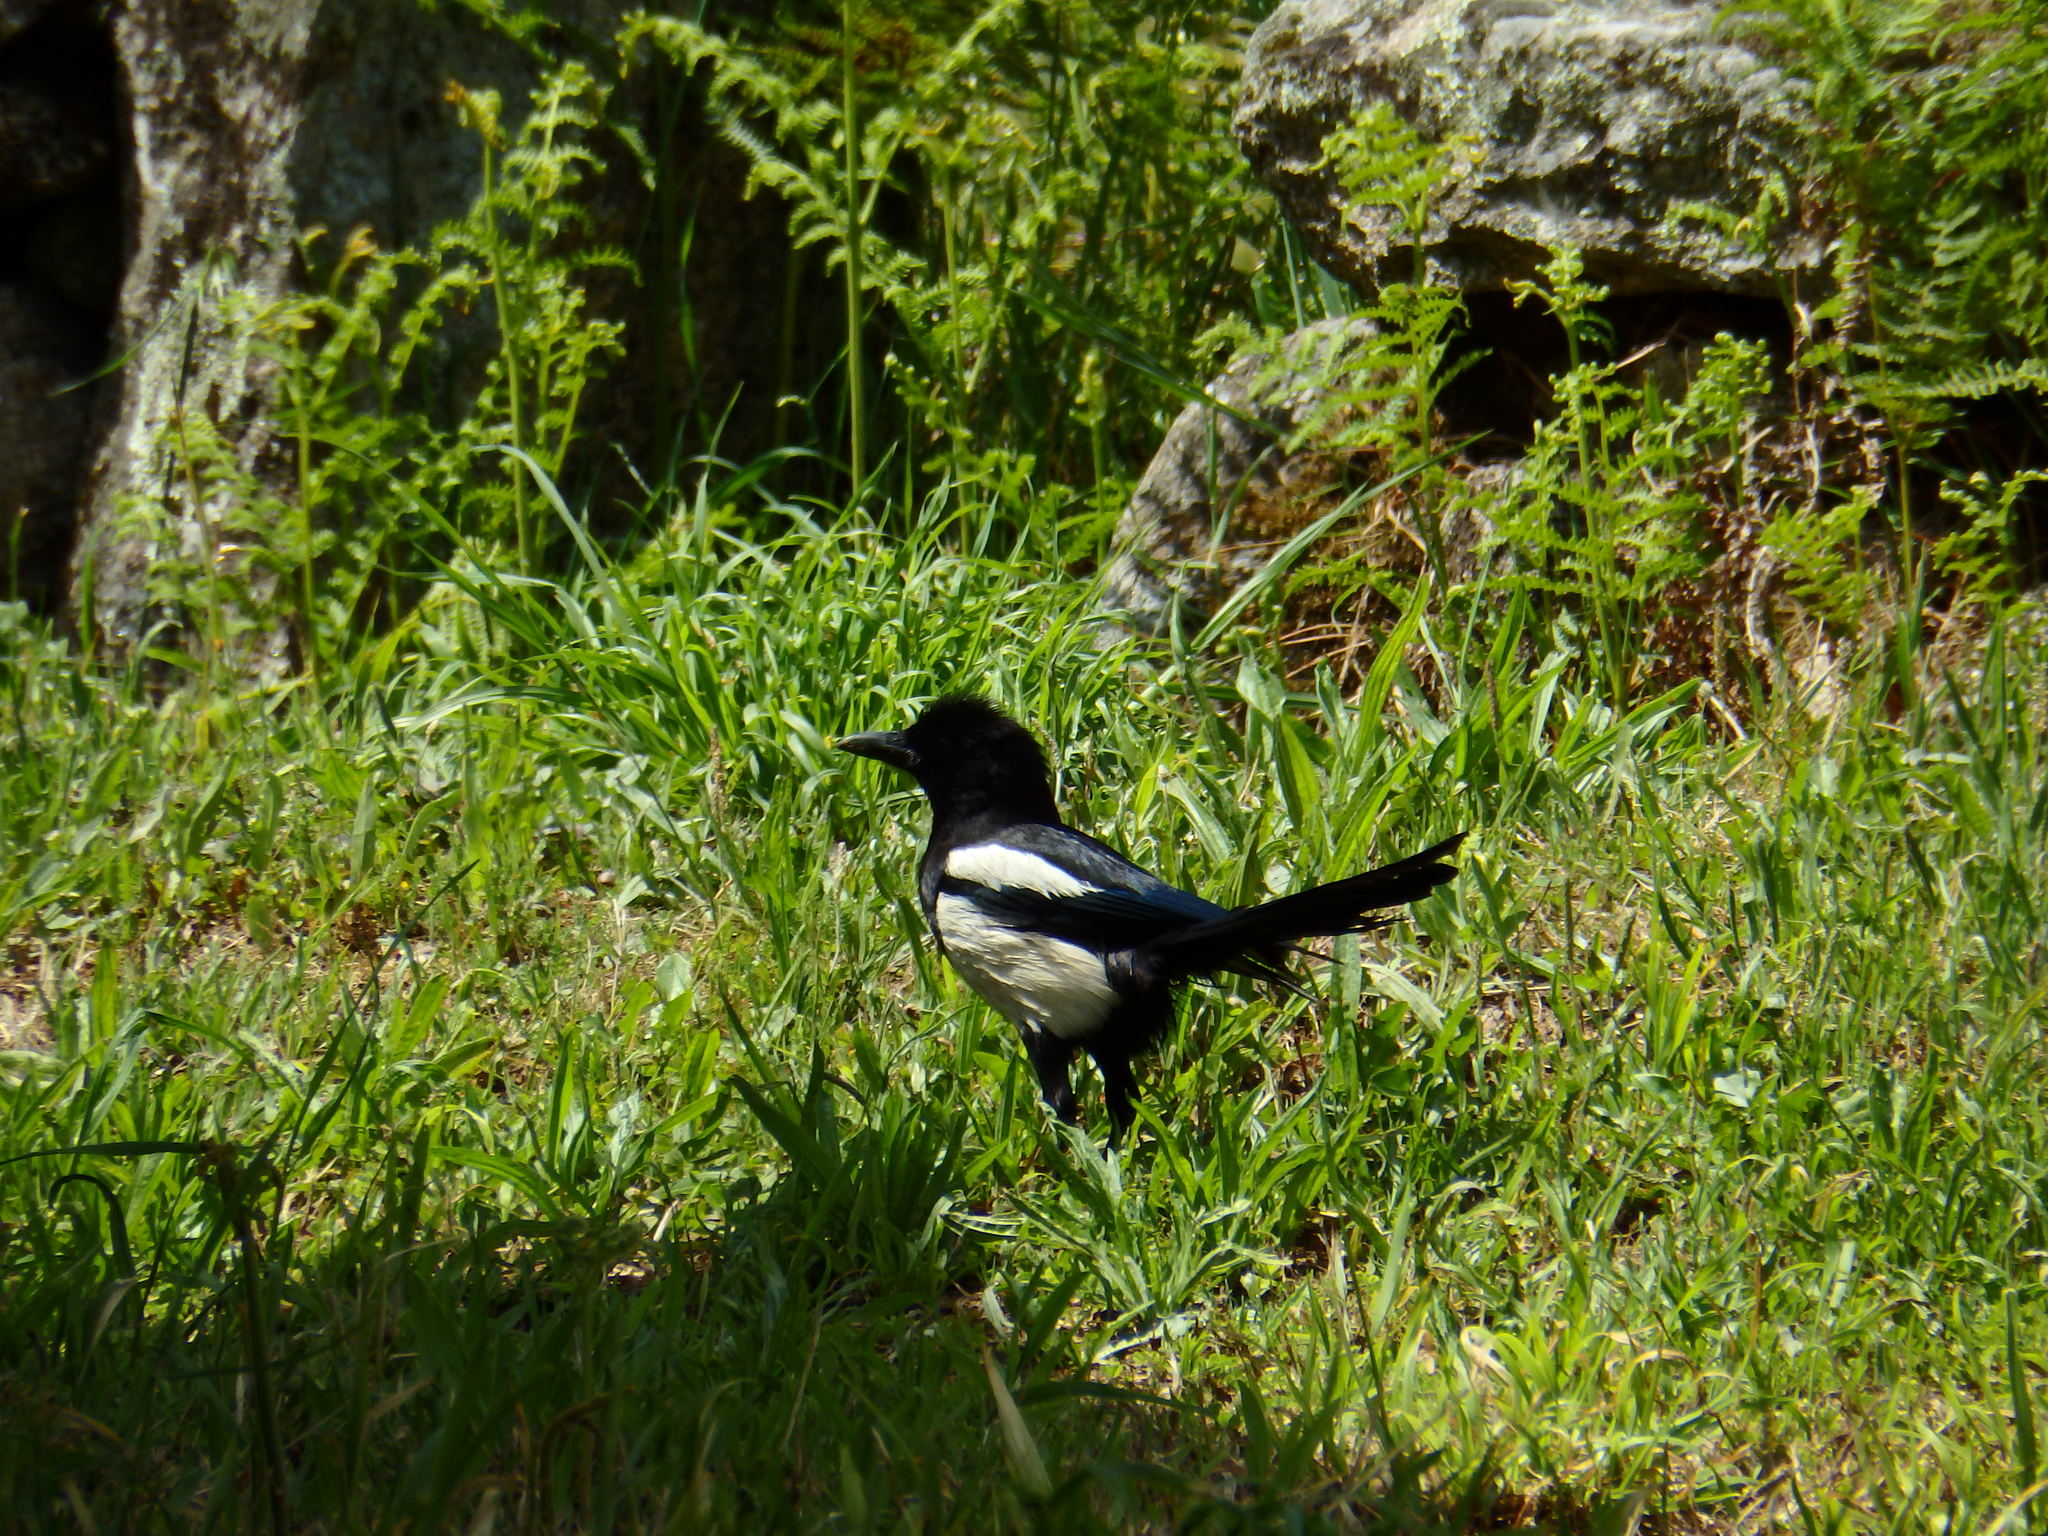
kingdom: Animalia
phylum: Chordata
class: Aves
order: Passeriformes
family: Corvidae
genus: Pica
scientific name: Pica pica
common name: Eurasian magpie
